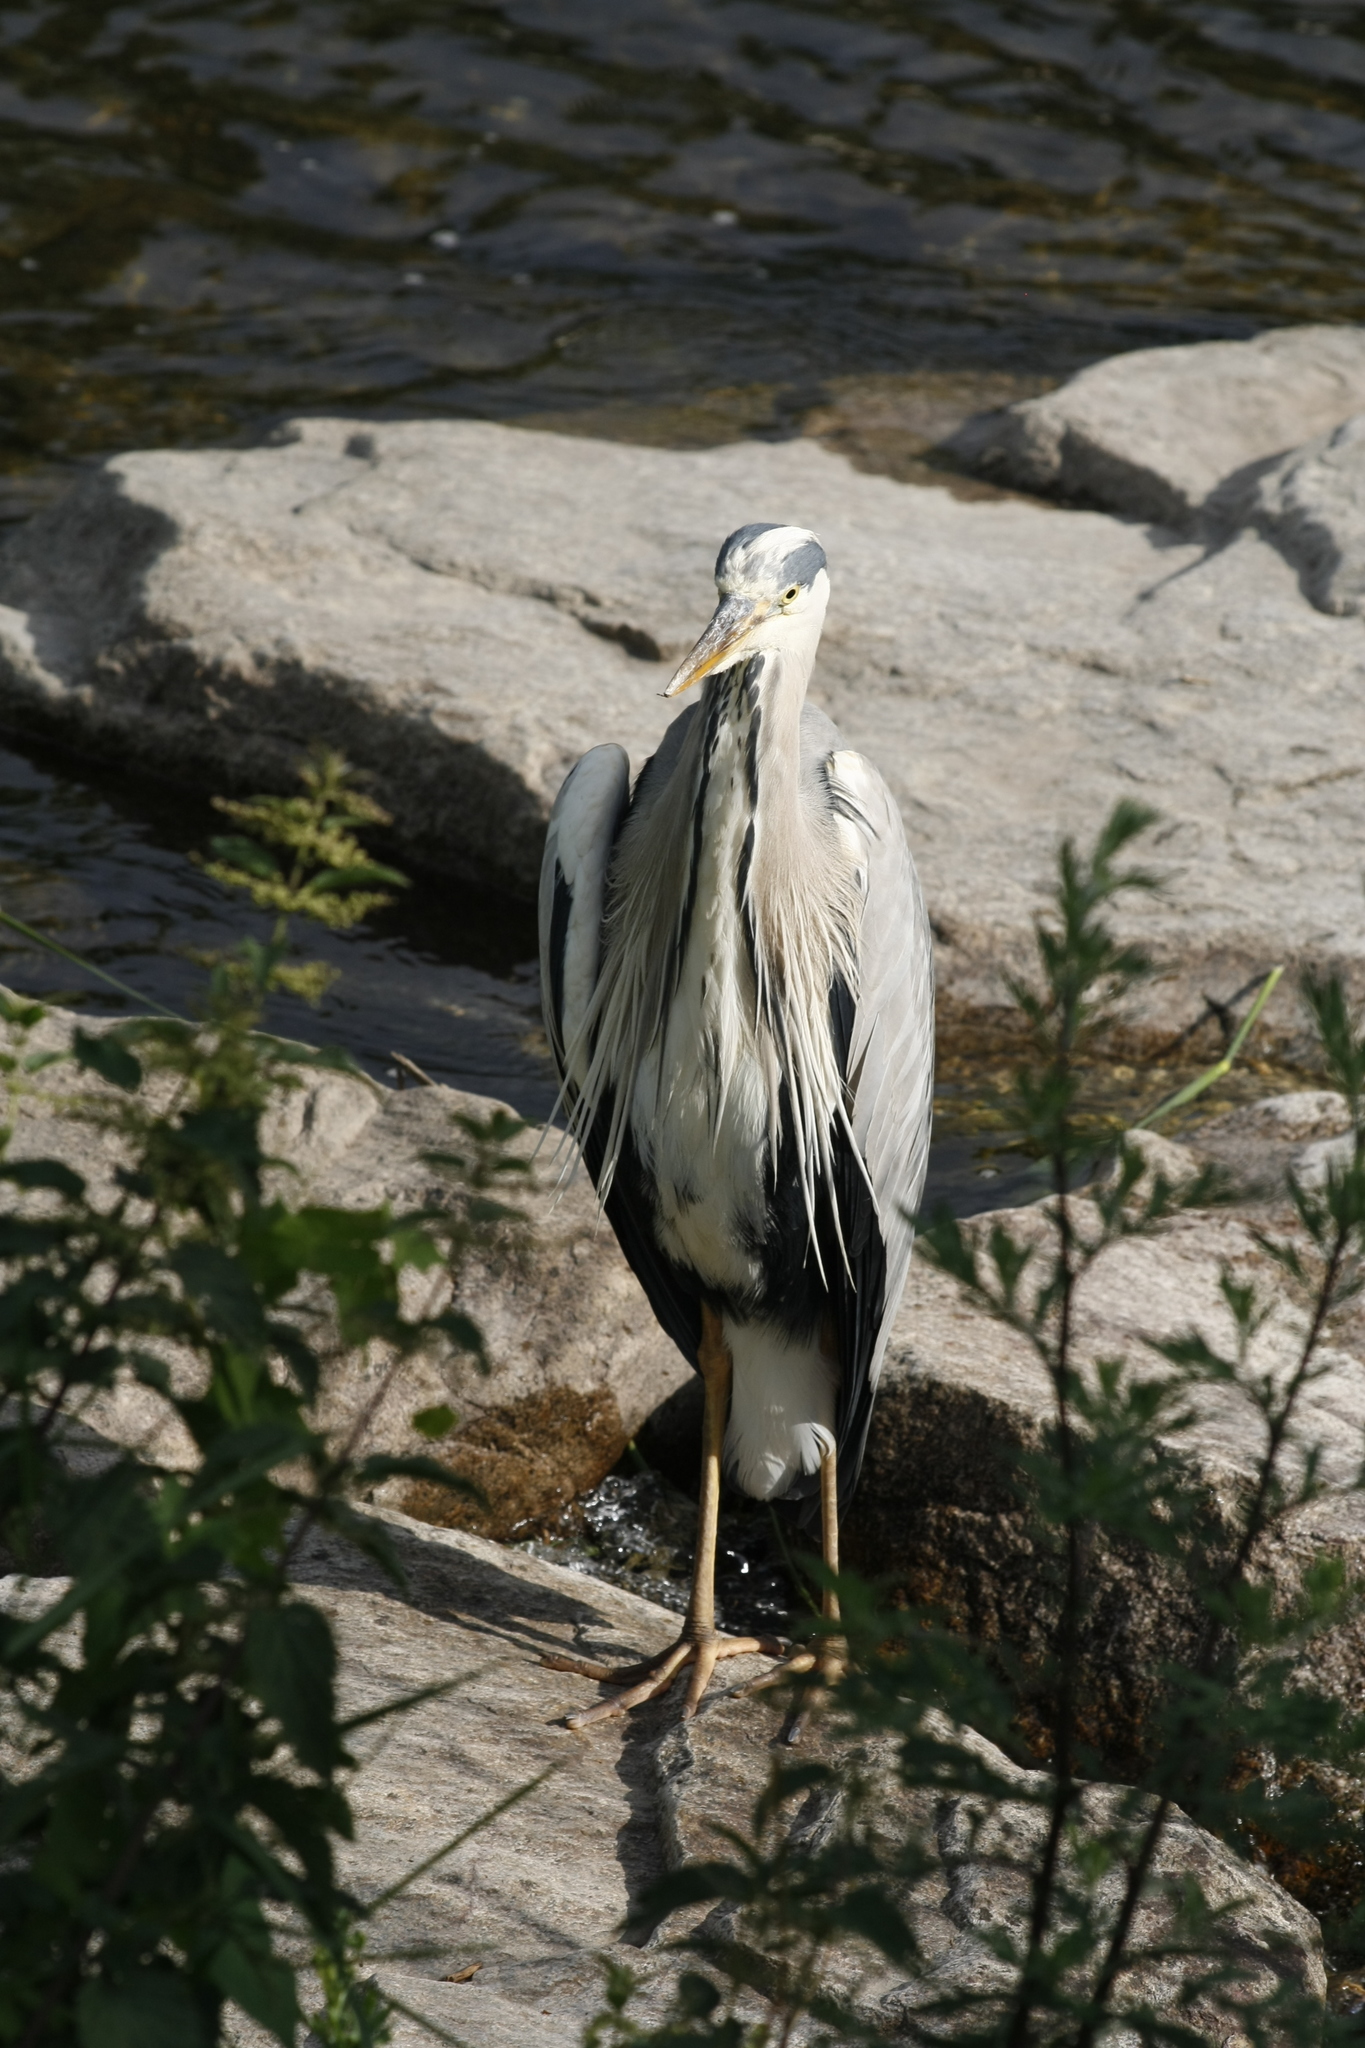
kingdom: Animalia
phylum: Chordata
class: Aves
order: Pelecaniformes
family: Ardeidae
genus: Ardea
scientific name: Ardea cinerea
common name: Grey heron
